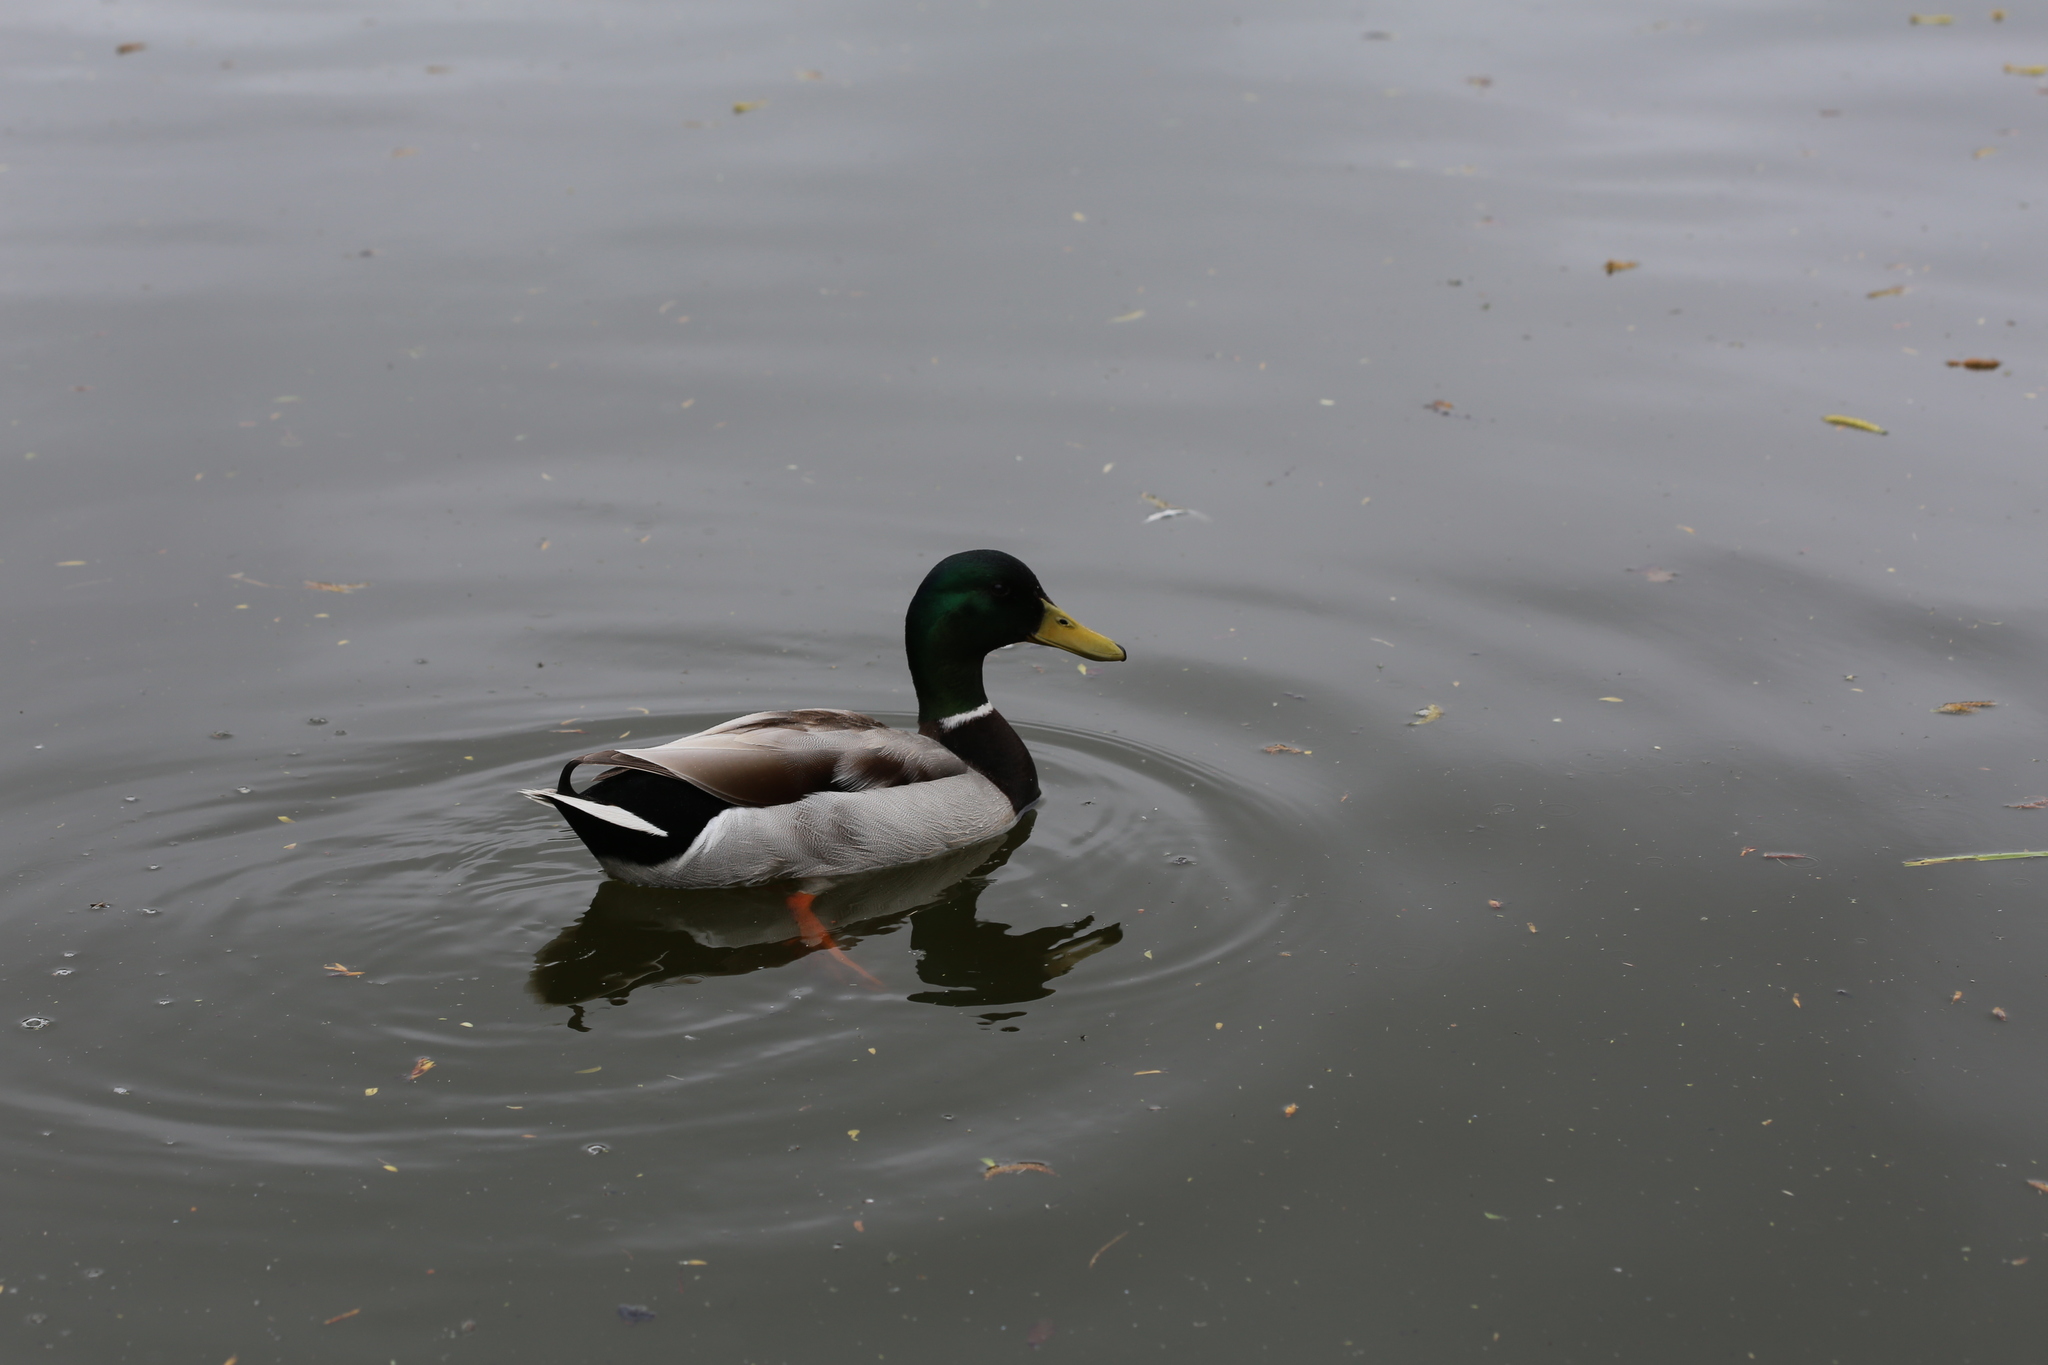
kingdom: Animalia
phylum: Chordata
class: Aves
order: Anseriformes
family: Anatidae
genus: Anas
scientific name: Anas platyrhynchos
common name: Mallard
